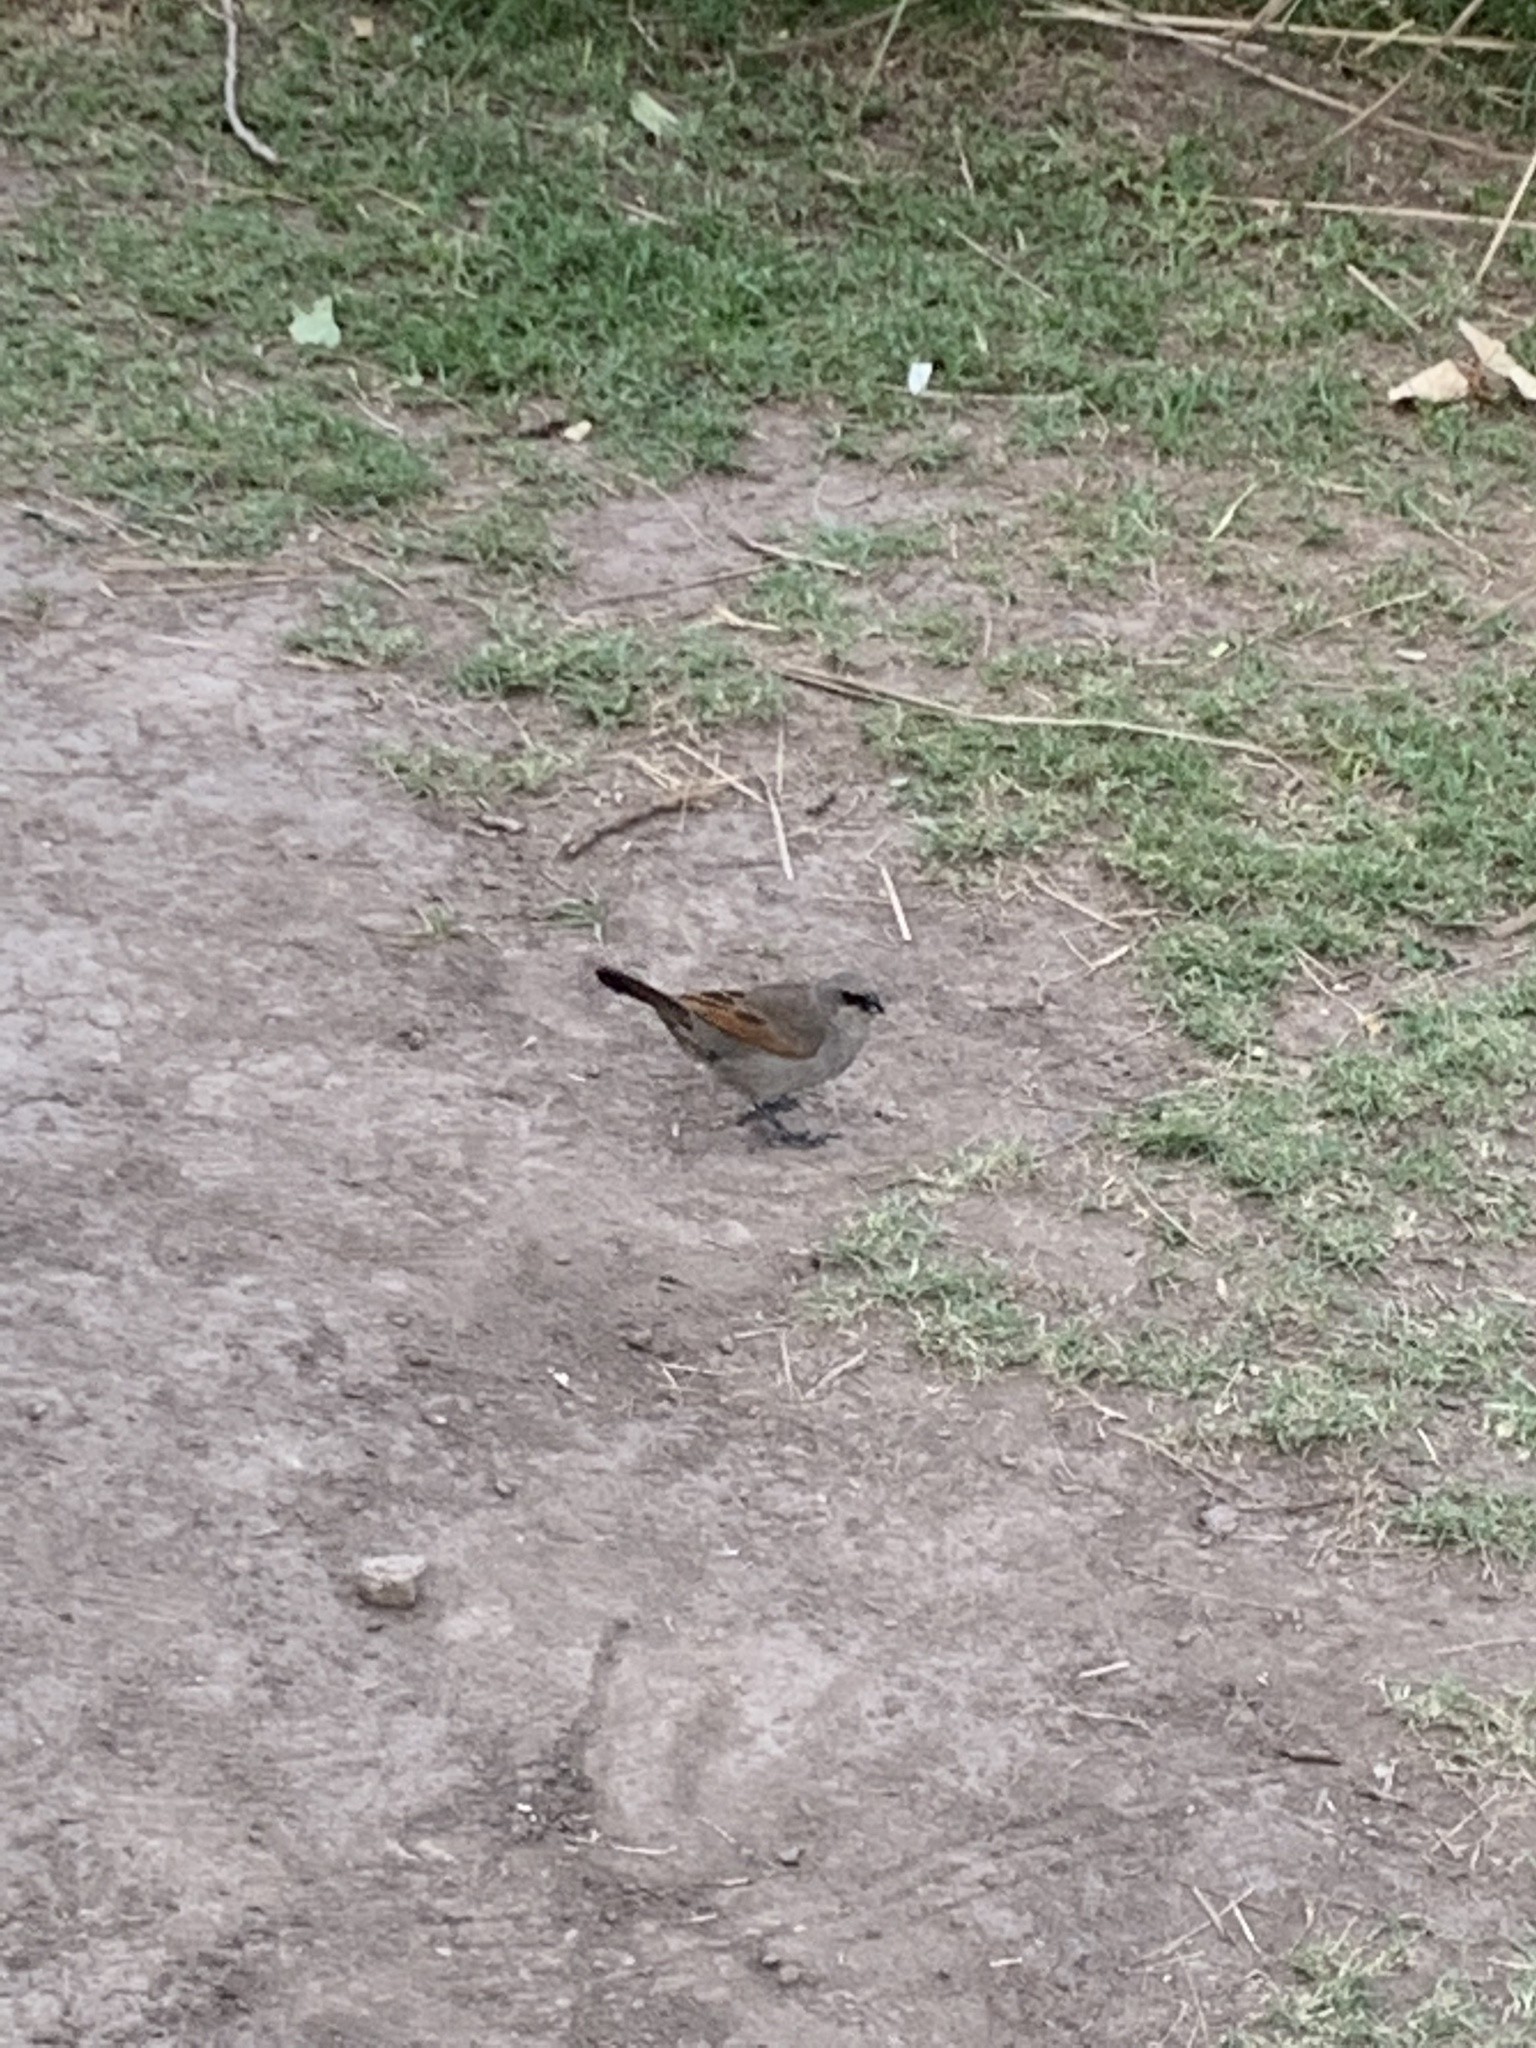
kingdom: Animalia
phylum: Chordata
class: Aves
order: Passeriformes
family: Icteridae
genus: Agelaioides
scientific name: Agelaioides badius
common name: Baywing
